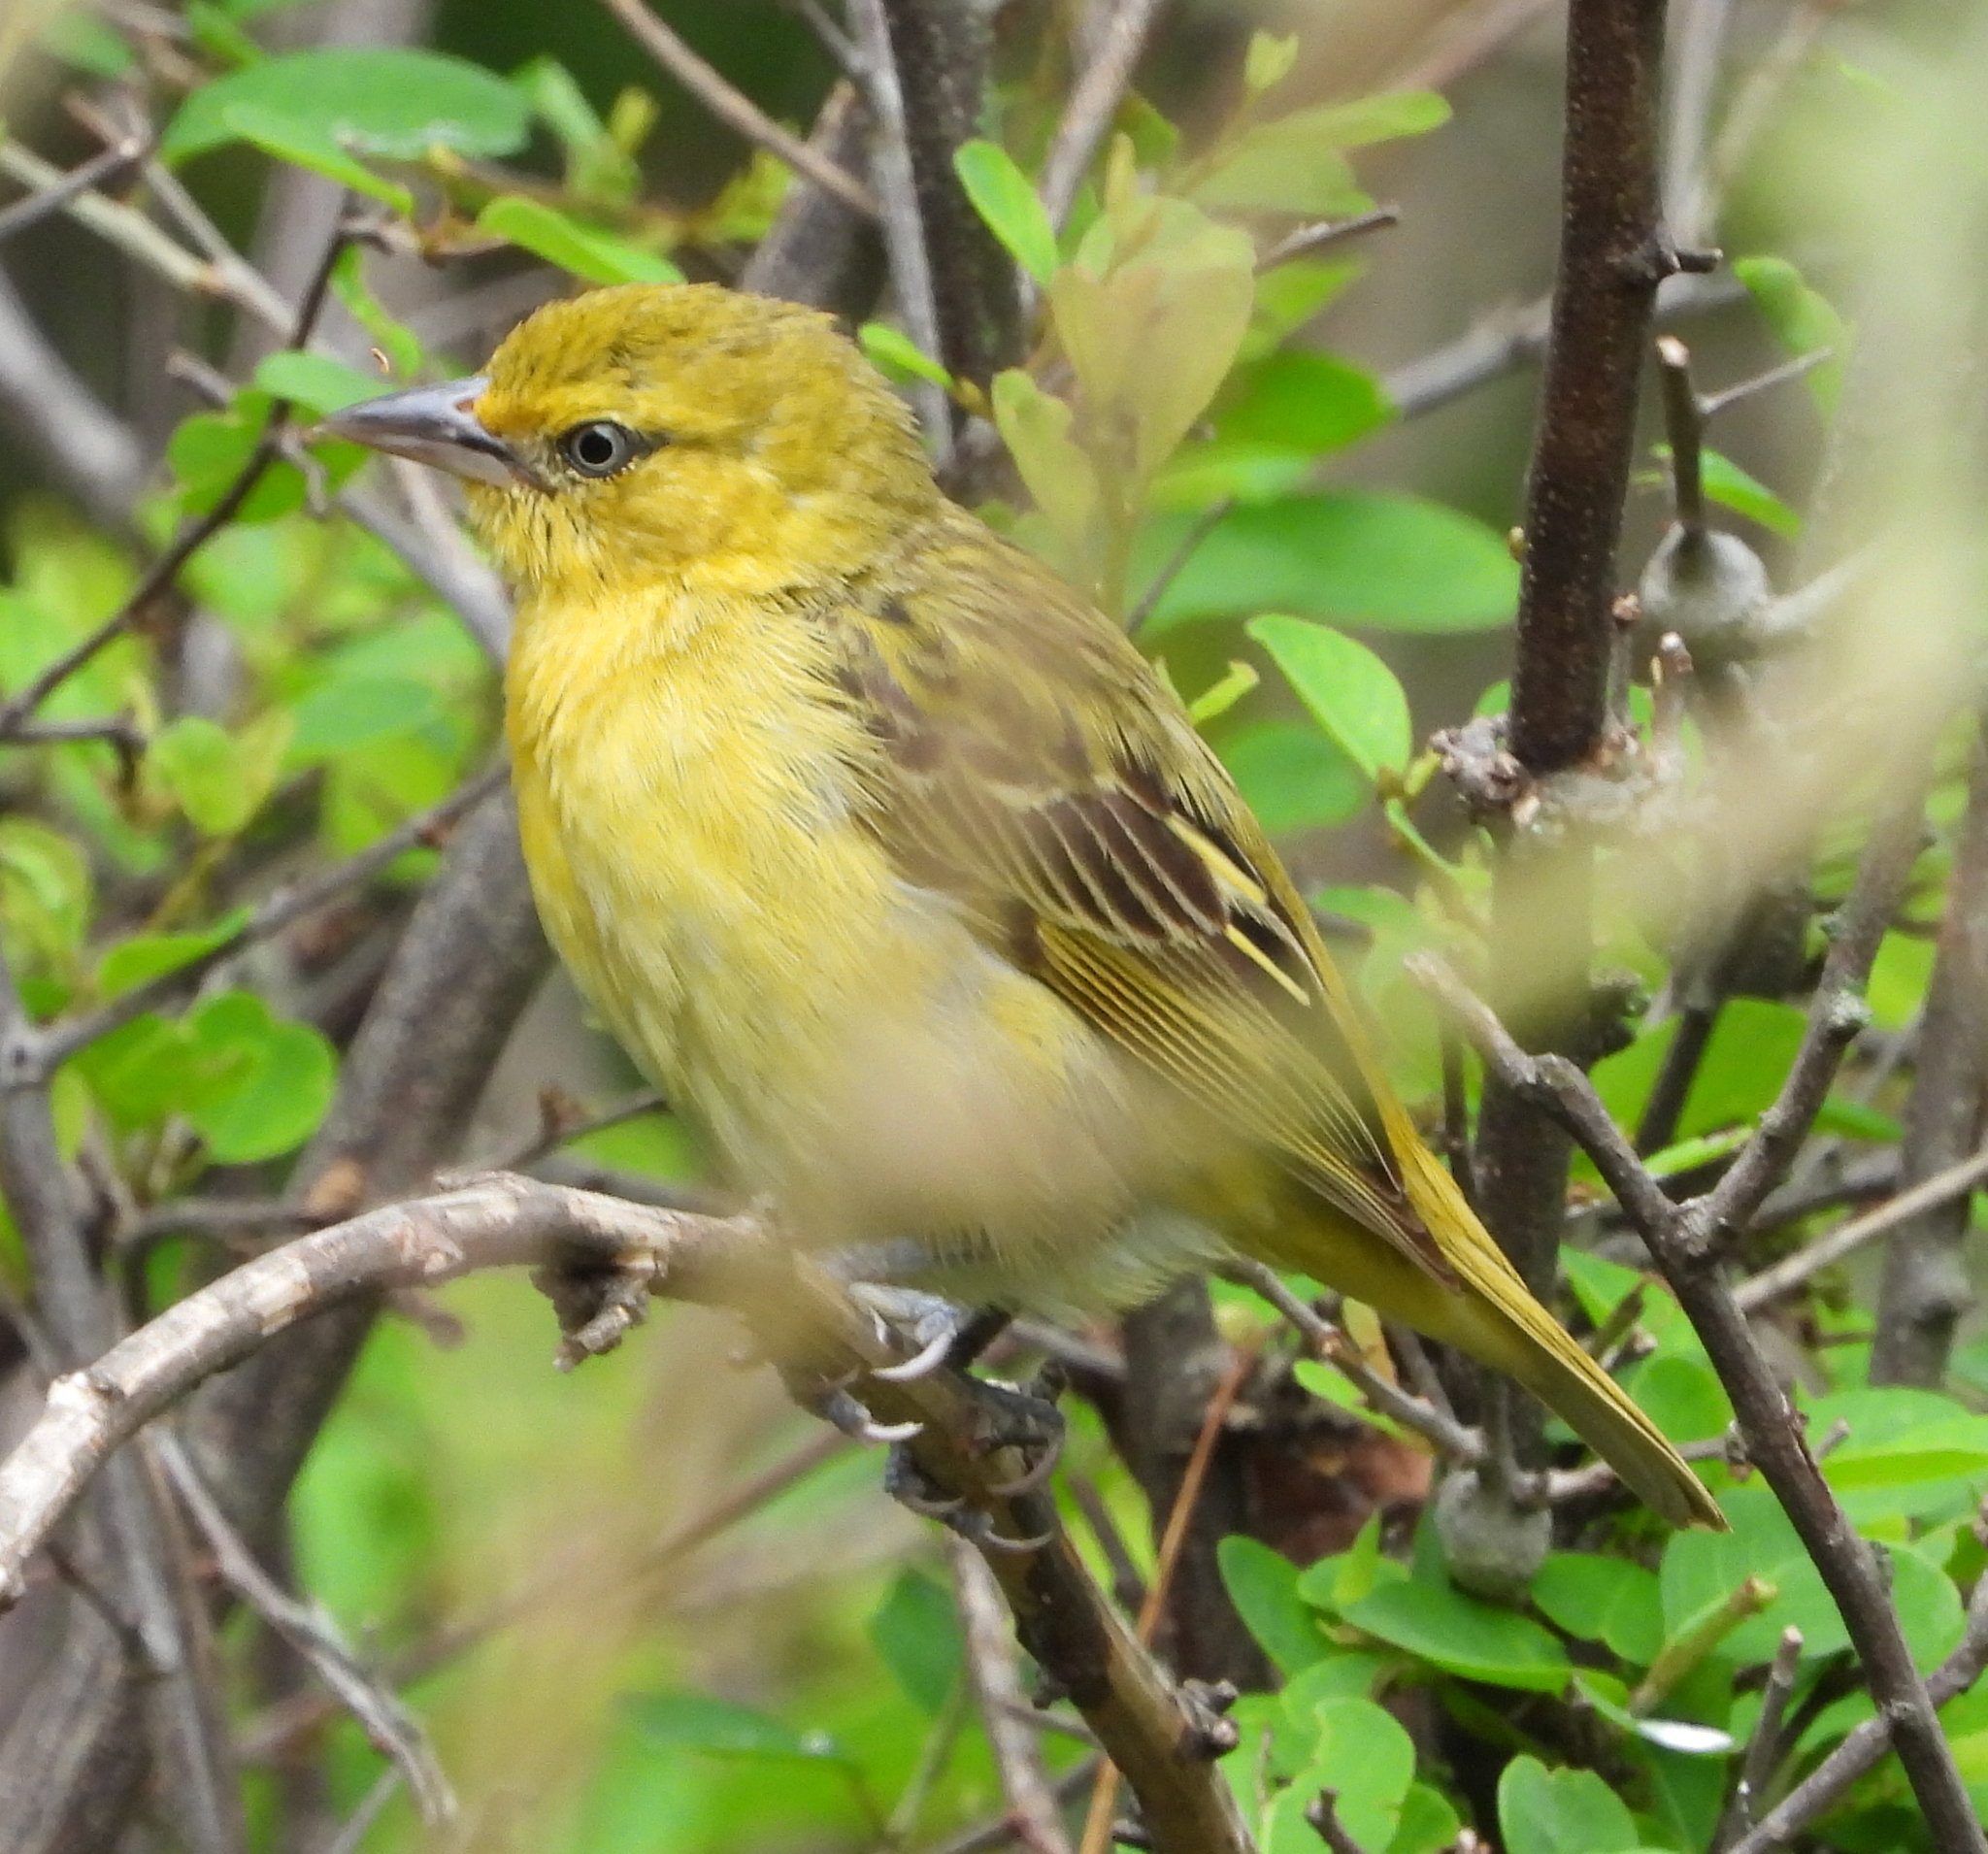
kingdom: Animalia
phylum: Chordata
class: Aves
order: Passeriformes
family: Ploceidae
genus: Ploceus
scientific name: Ploceus intermedius
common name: Lesser masked weaver
